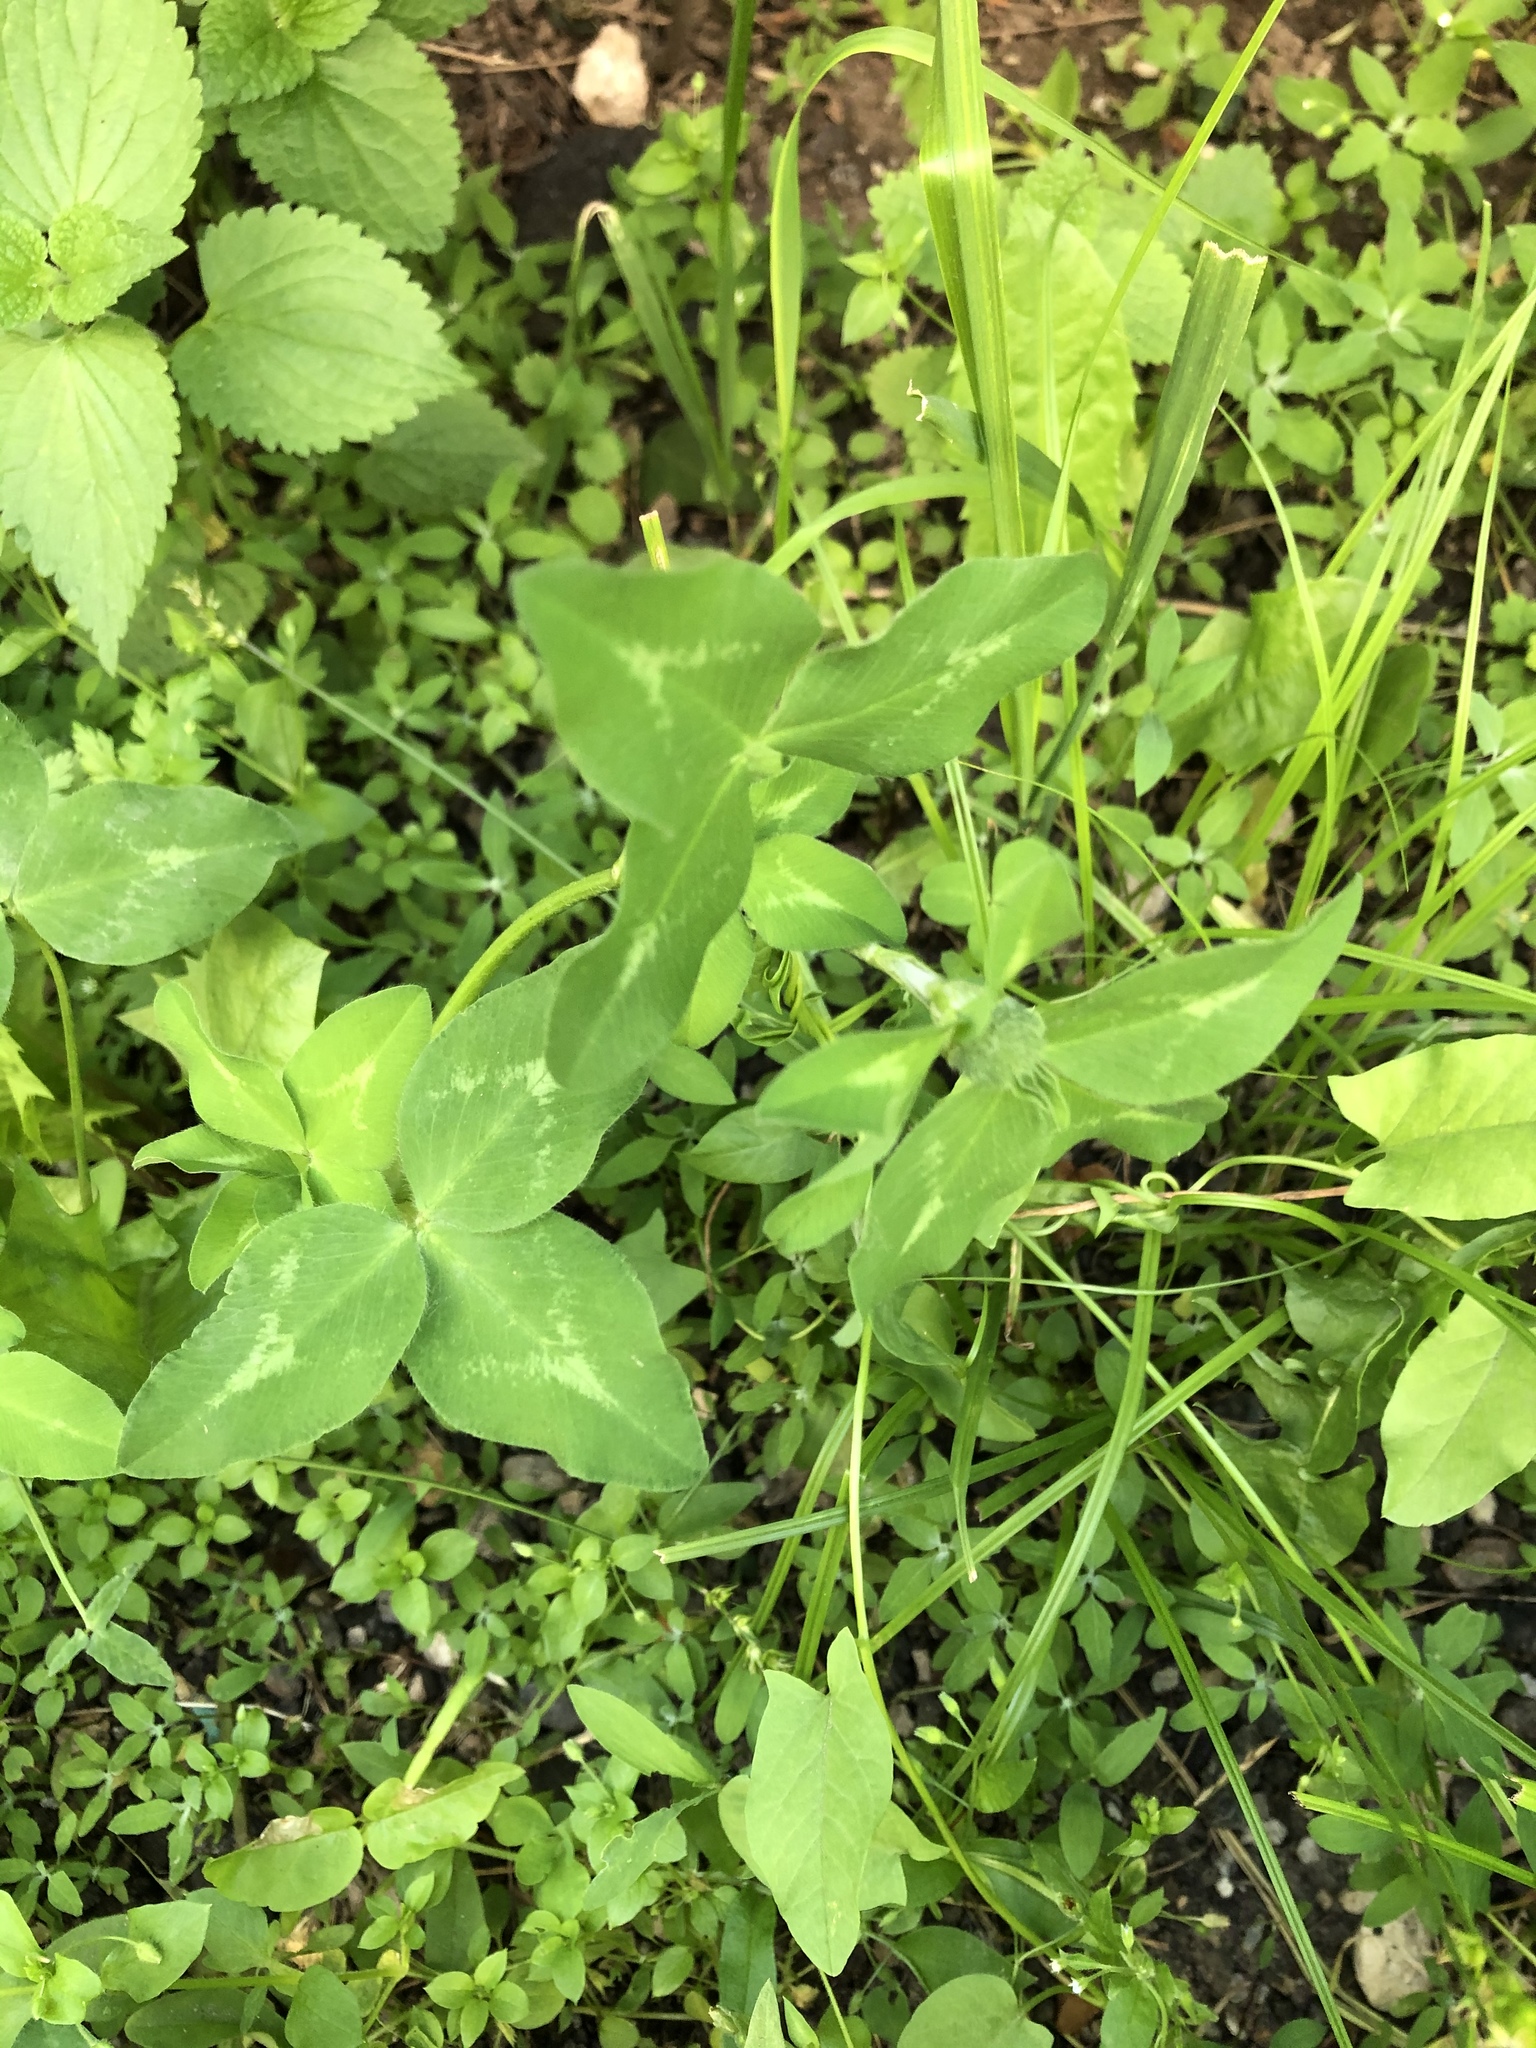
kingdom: Plantae
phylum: Tracheophyta
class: Magnoliopsida
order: Fabales
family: Fabaceae
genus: Trifolium
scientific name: Trifolium pratense
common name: Red clover
